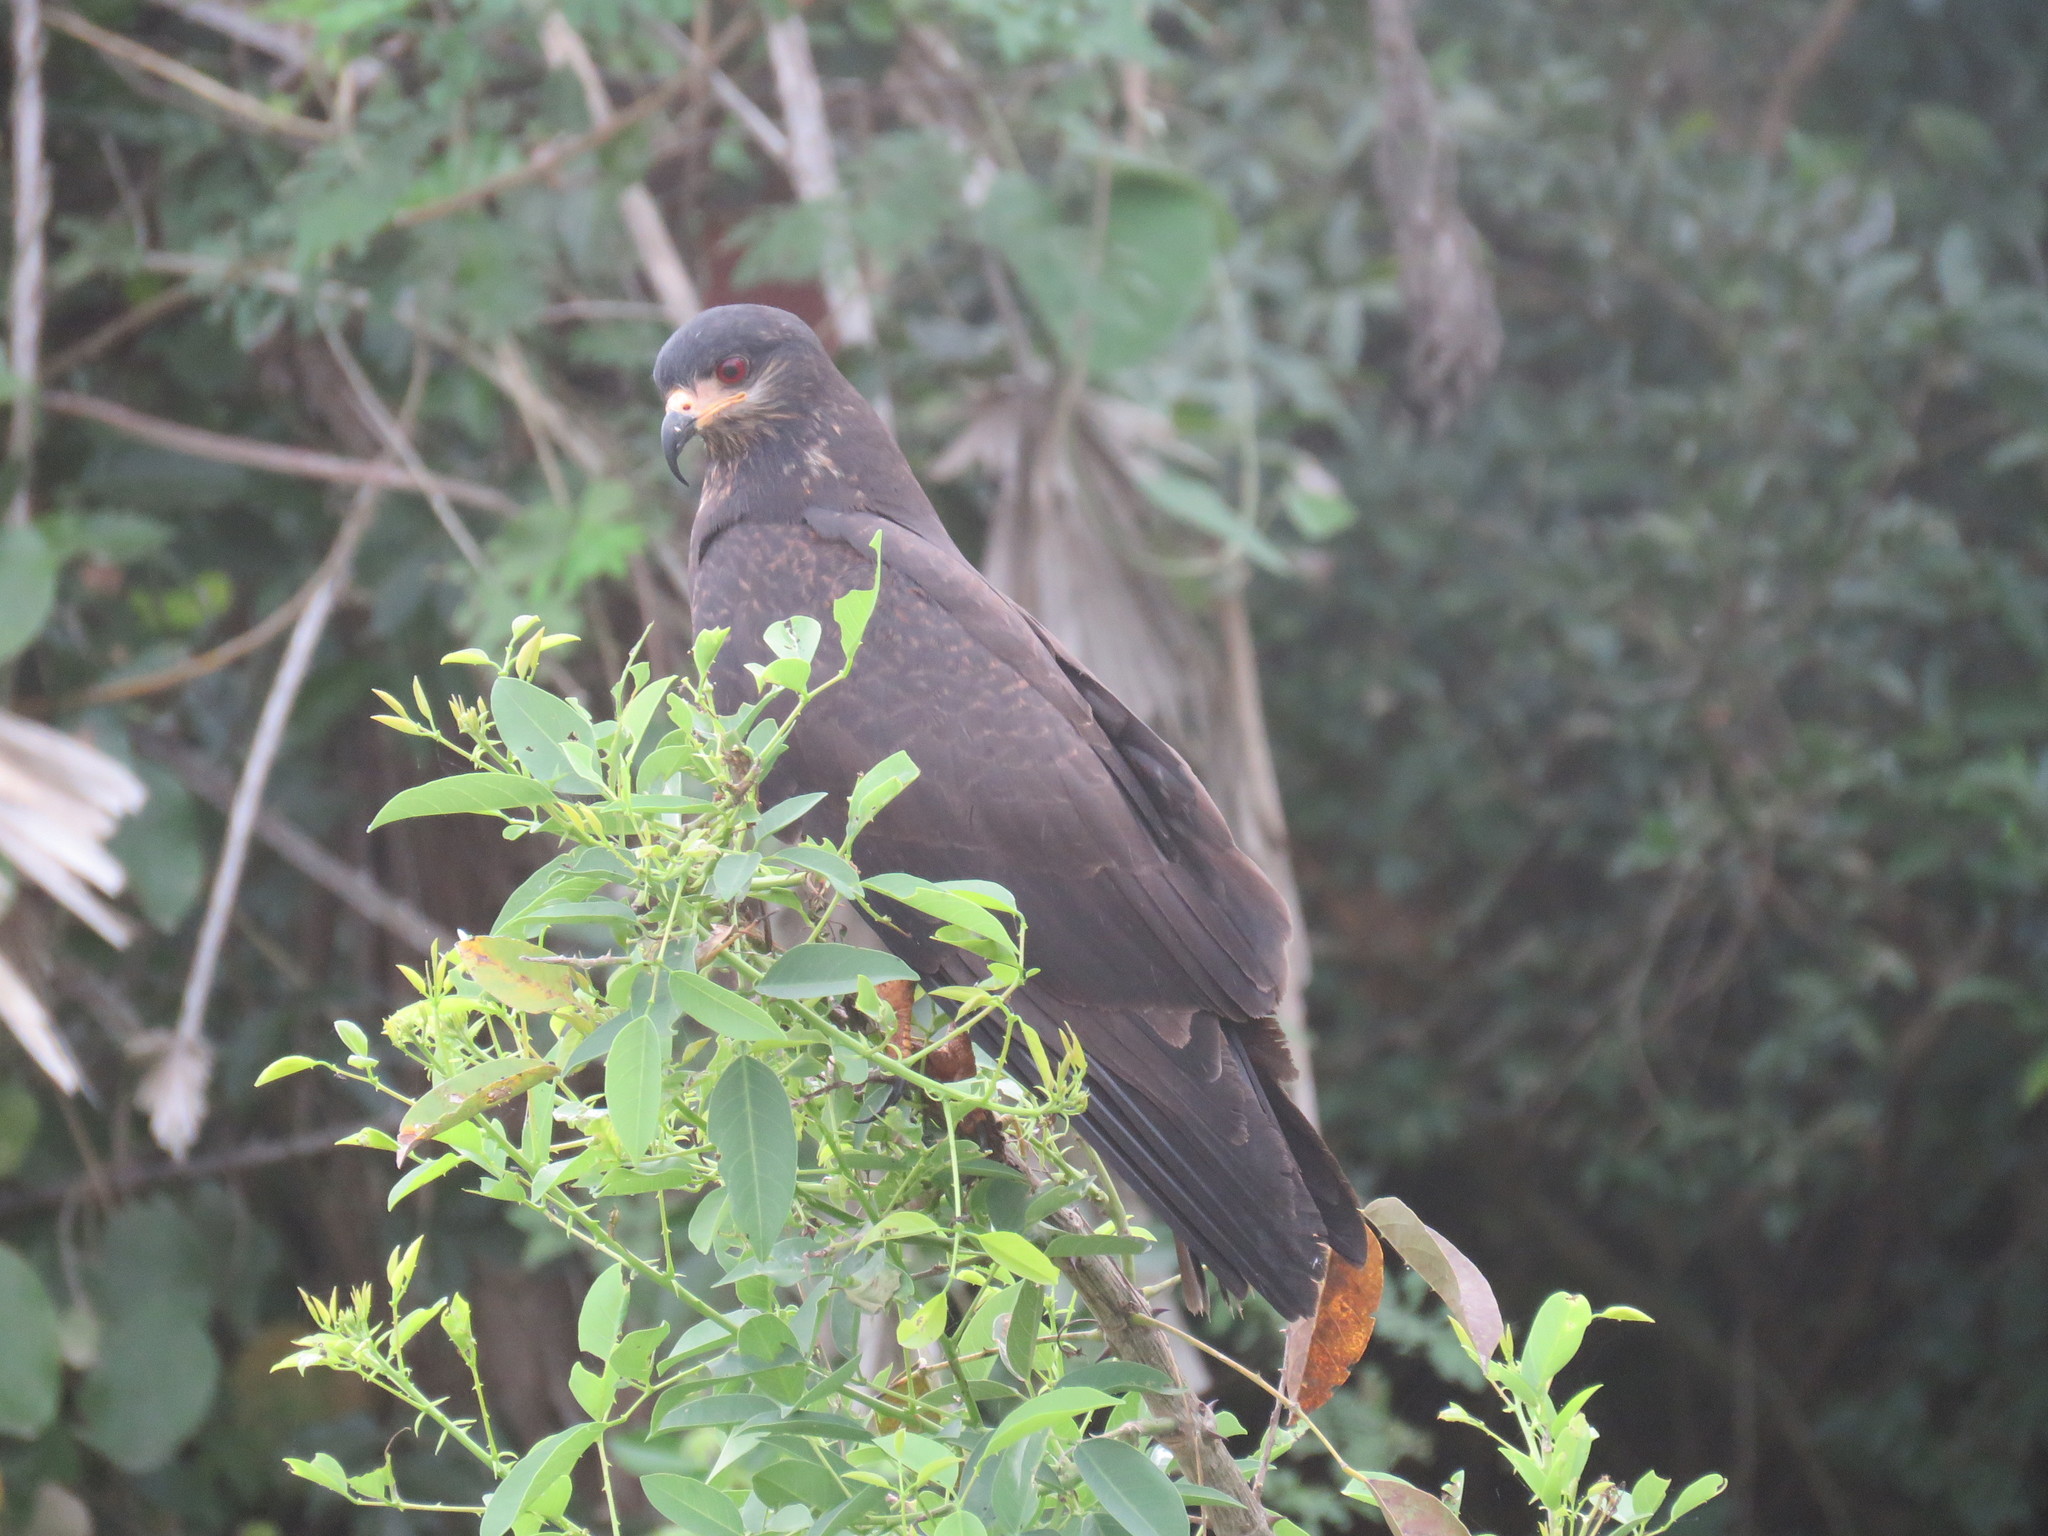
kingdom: Animalia
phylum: Chordata
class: Aves
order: Accipitriformes
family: Accipitridae
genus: Rostrhamus
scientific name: Rostrhamus sociabilis
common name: Snail kite
